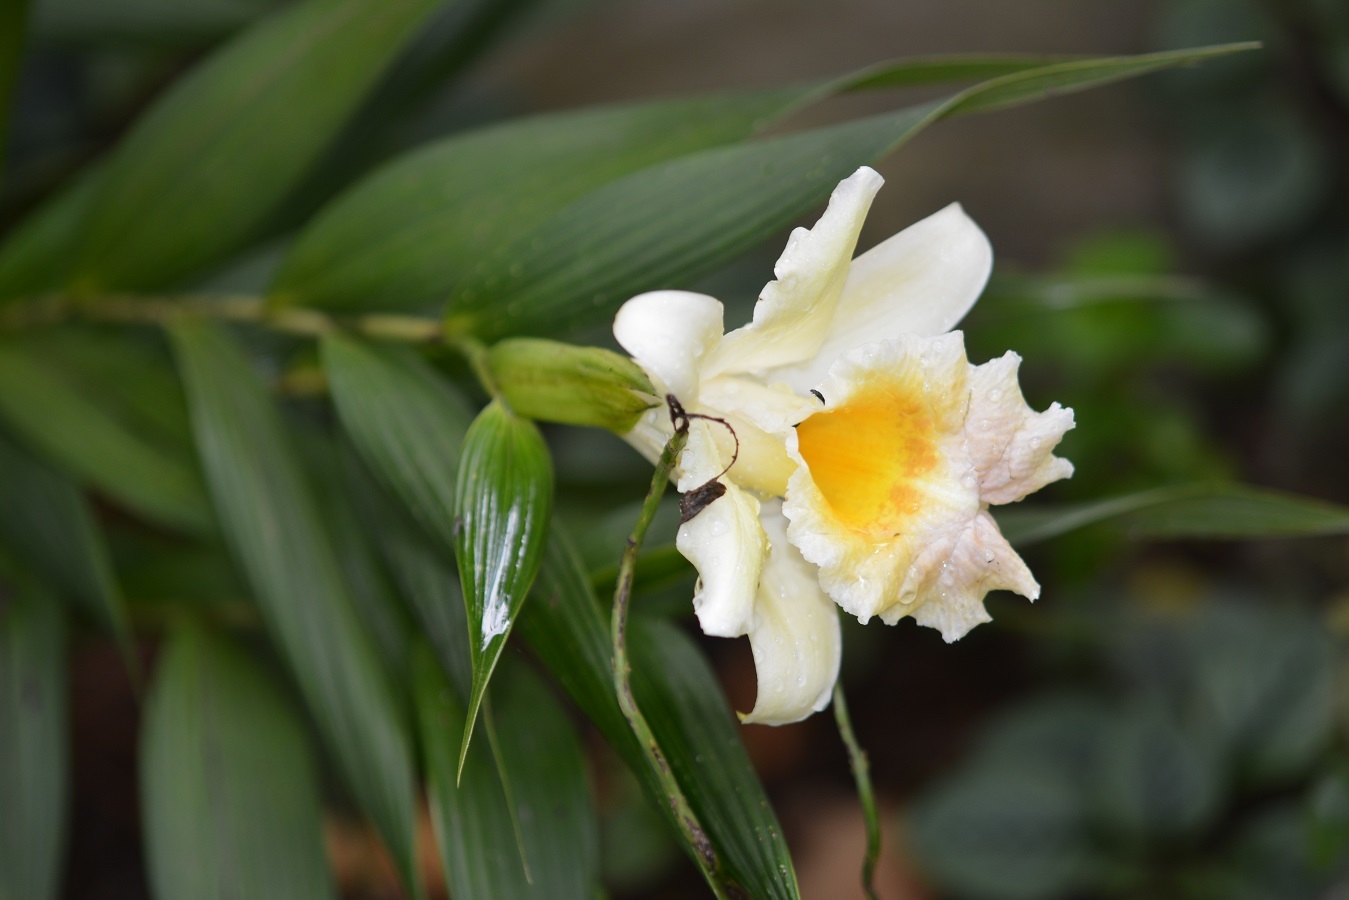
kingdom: Plantae
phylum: Tracheophyta
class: Liliopsida
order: Asparagales
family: Orchidaceae
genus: Sobralia
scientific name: Sobralia xantholeuca
